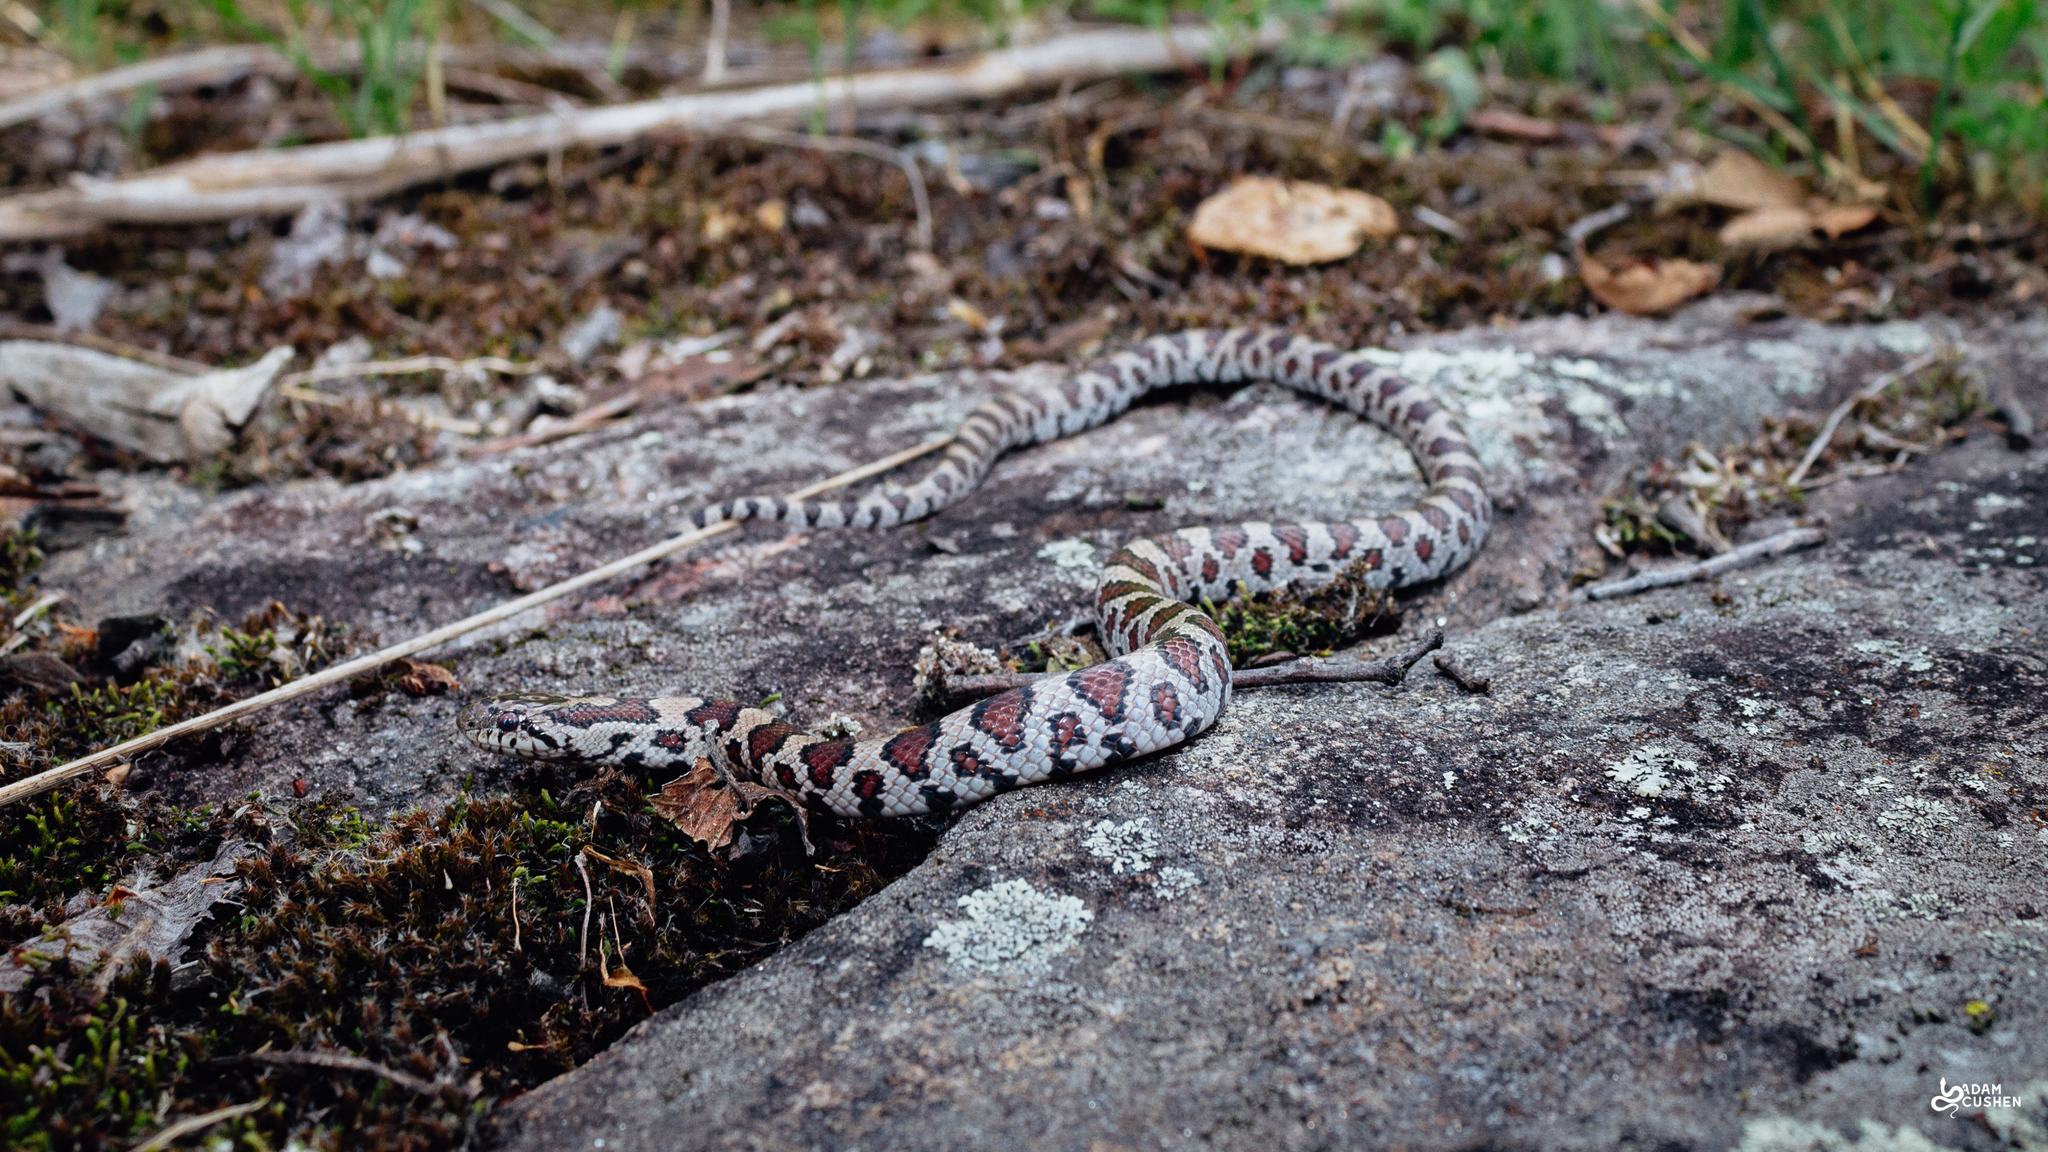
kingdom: Animalia
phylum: Chordata
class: Squamata
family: Colubridae
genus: Lampropeltis
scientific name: Lampropeltis triangulum
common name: Eastern milksnake
